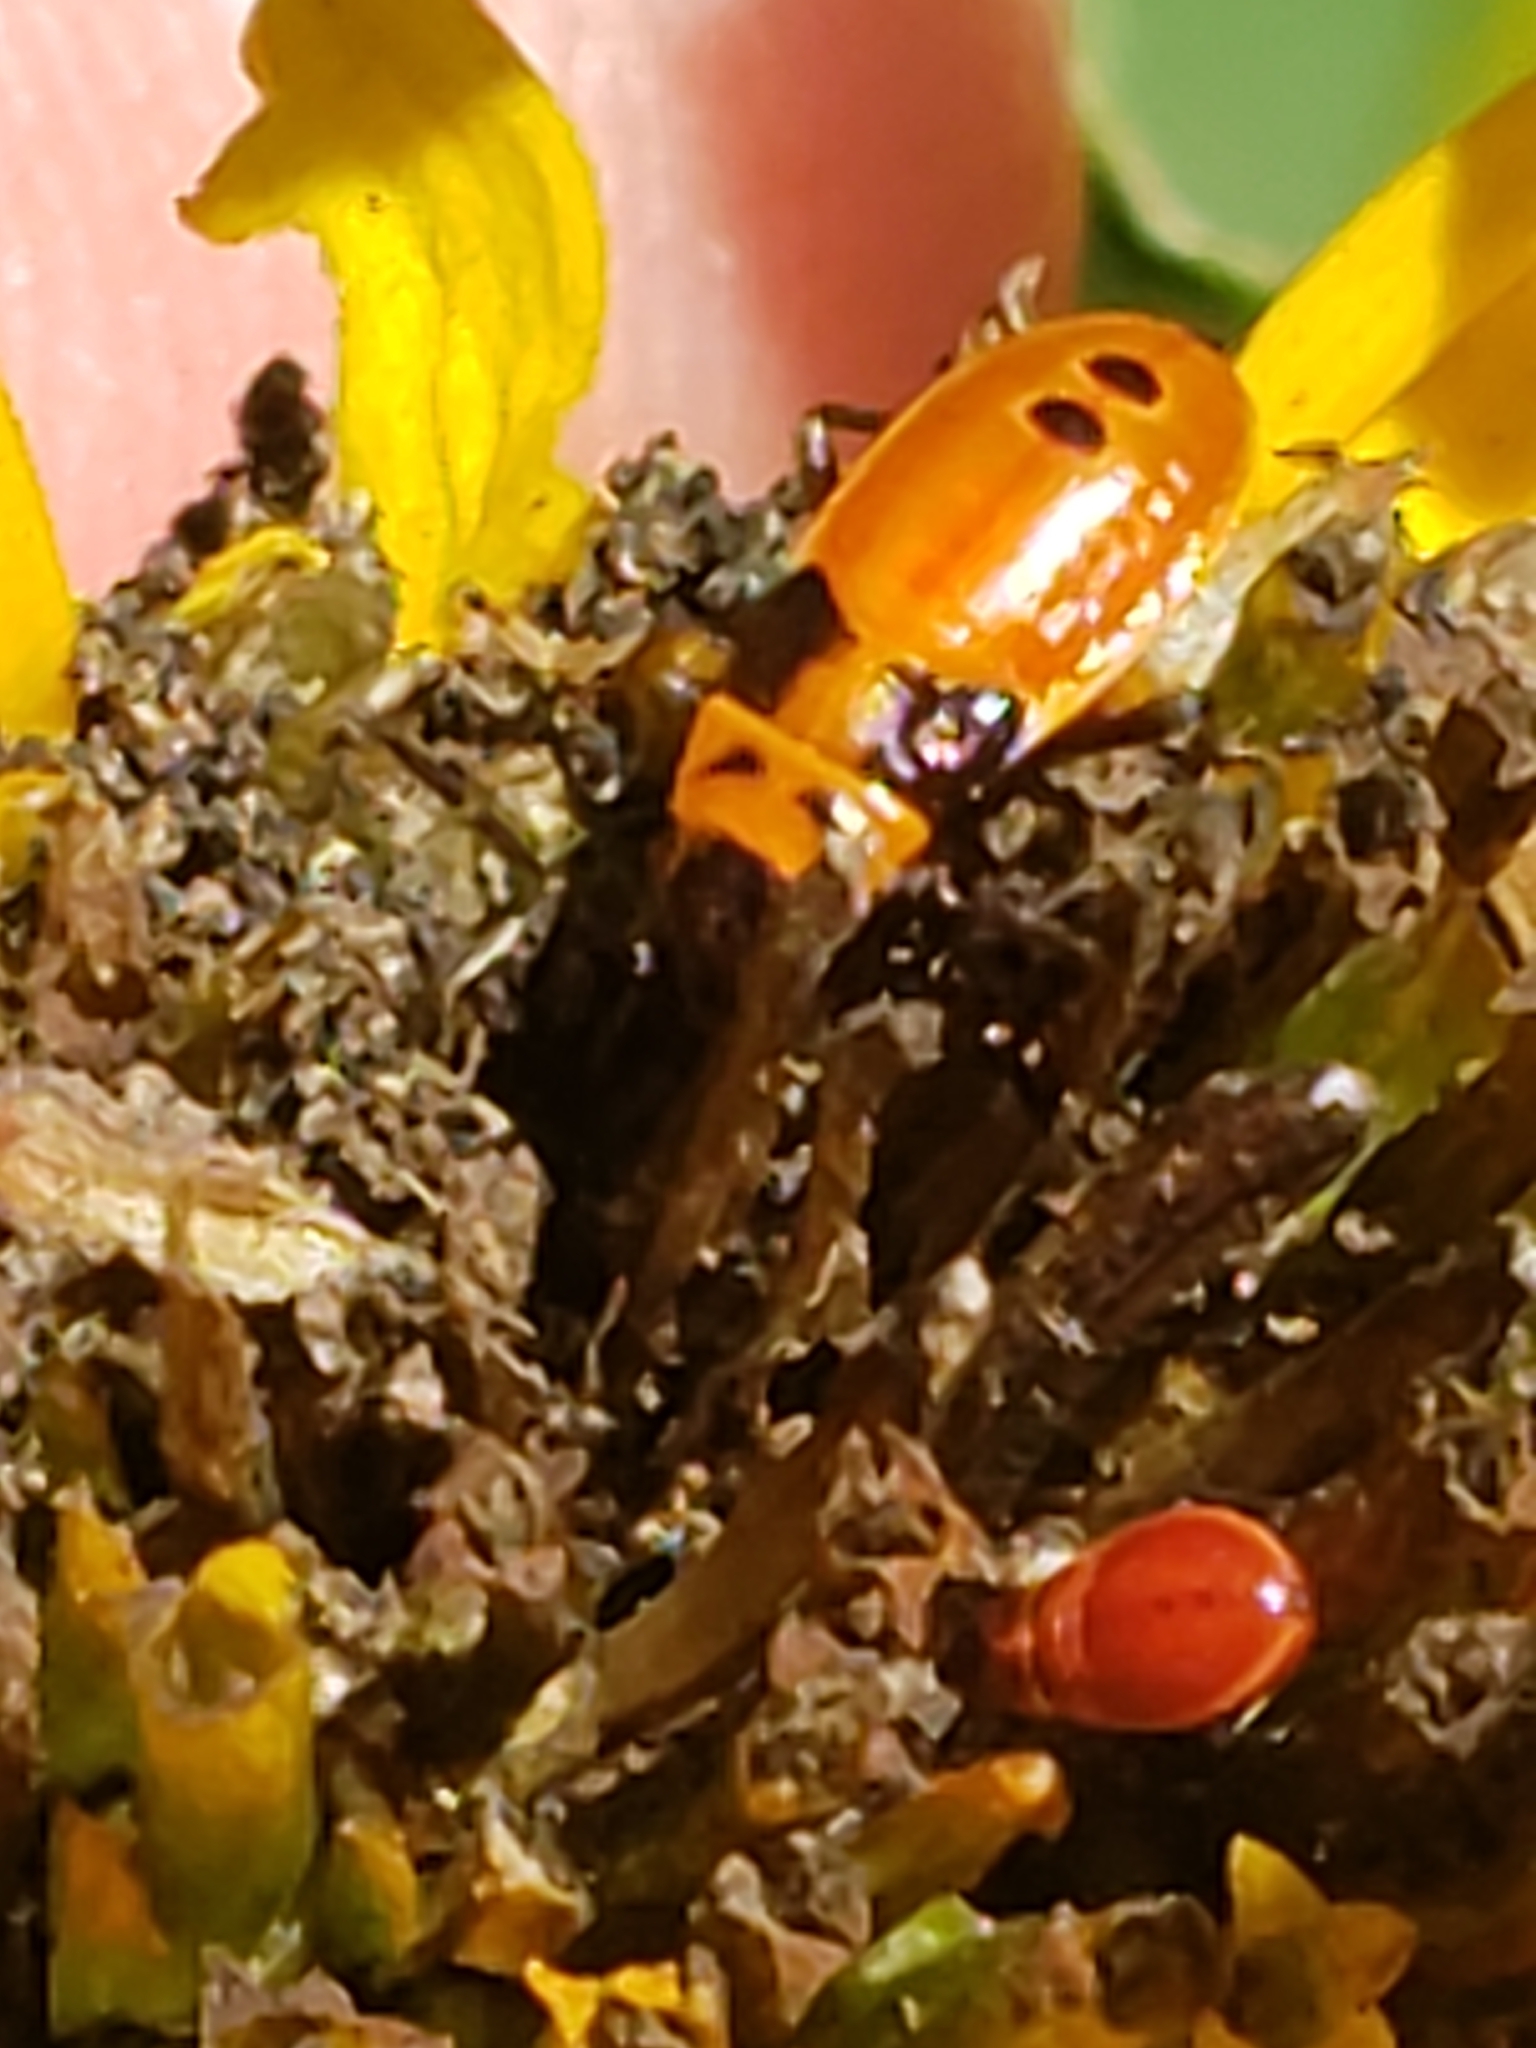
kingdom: Animalia
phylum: Arthropoda
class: Insecta
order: Hemiptera
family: Lygaeidae
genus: Lygaeus
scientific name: Lygaeus turcicus
